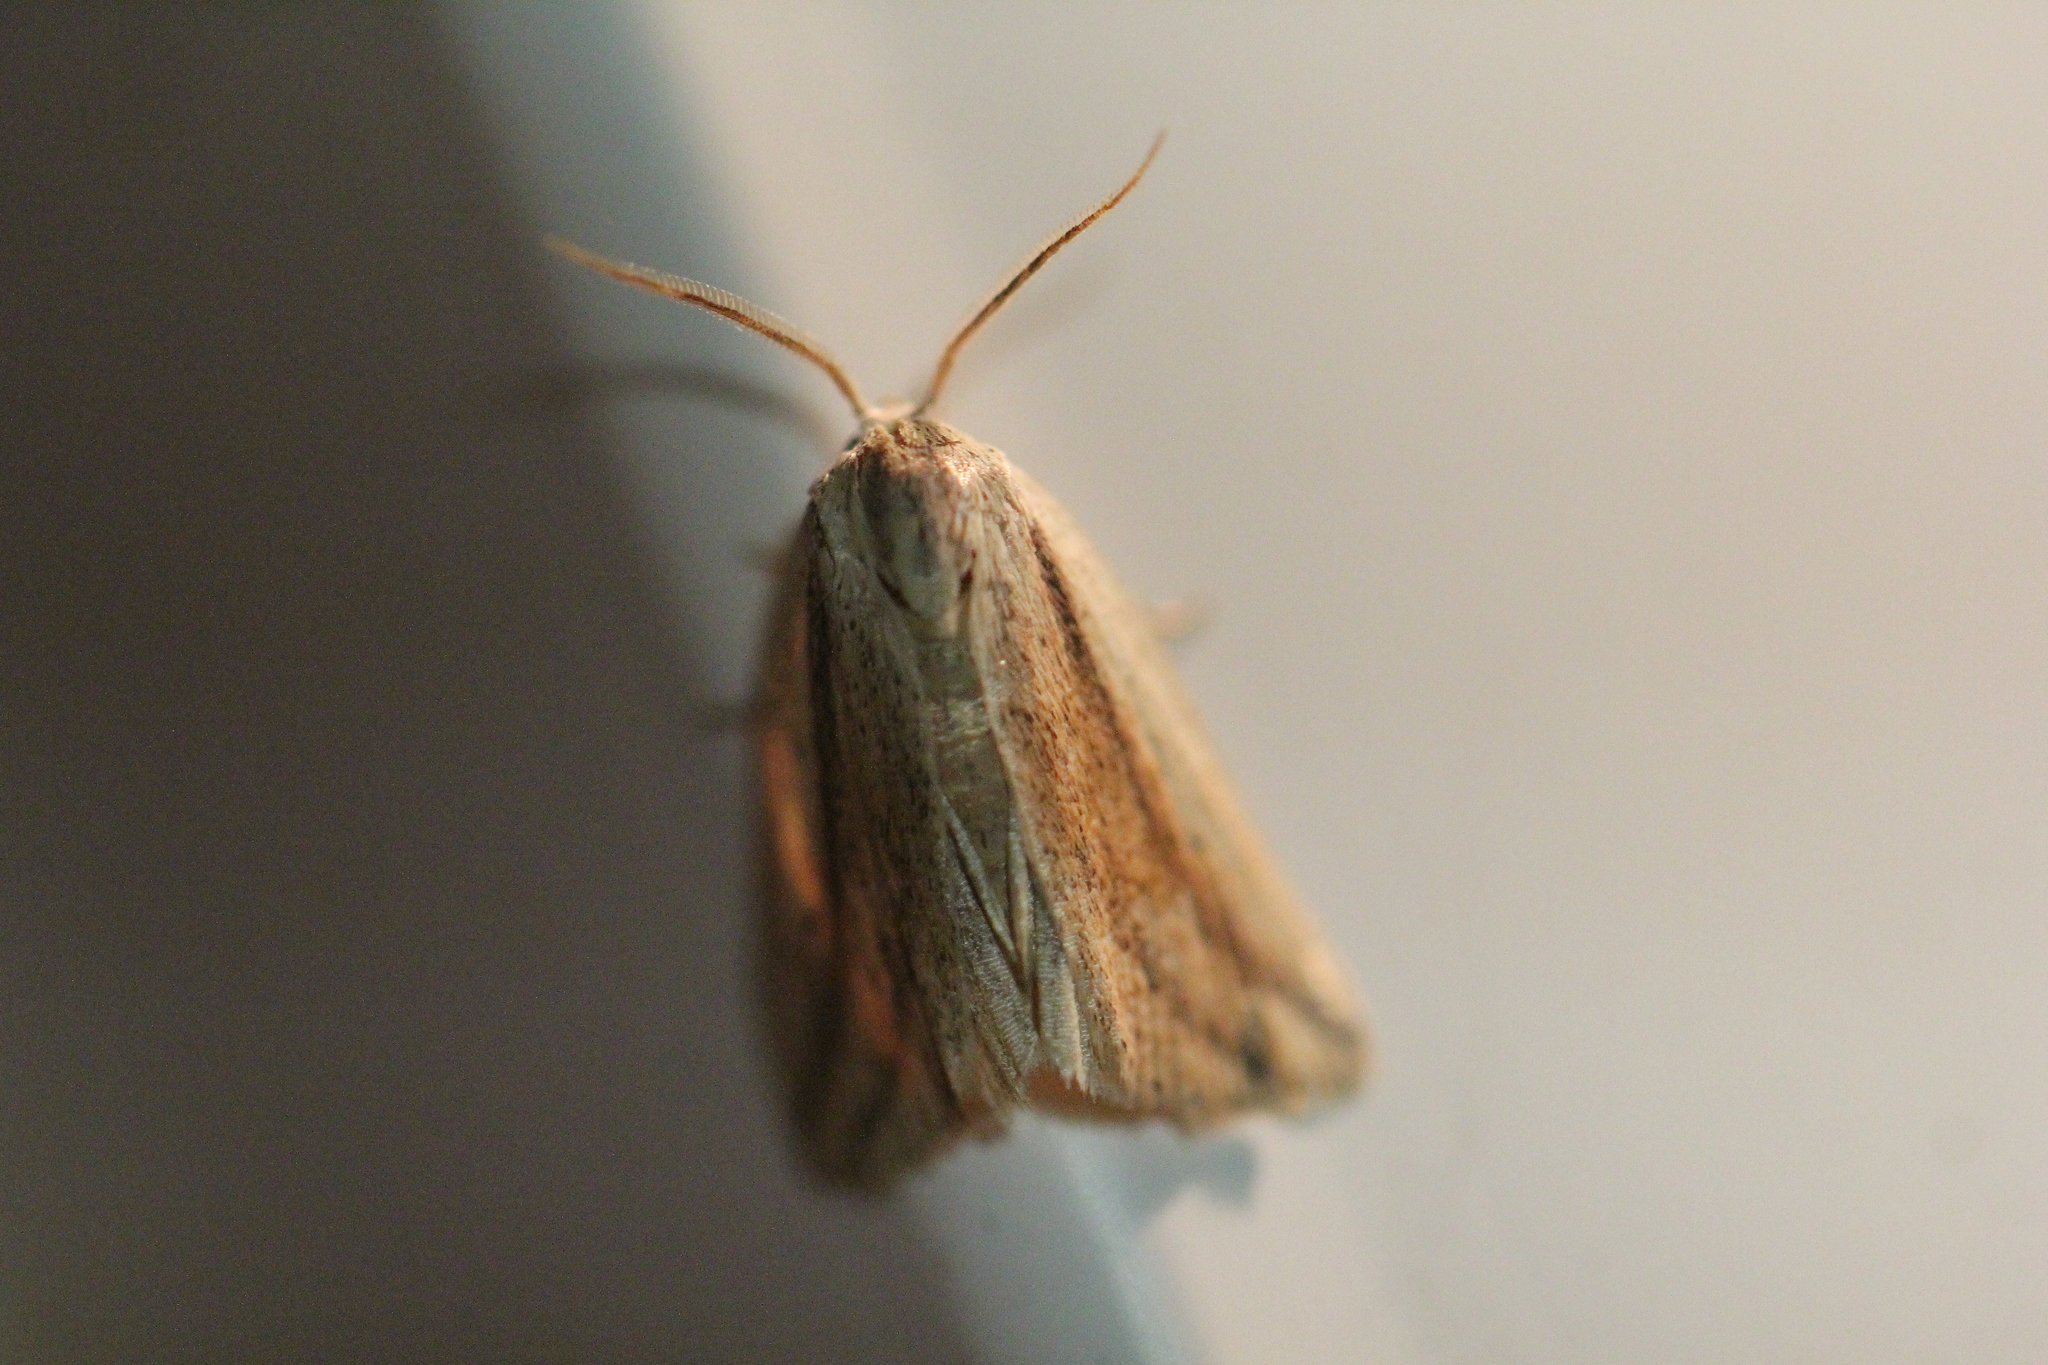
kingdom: Animalia
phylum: Arthropoda
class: Insecta
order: Lepidoptera
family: Noctuidae
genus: Amolita
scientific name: Amolita fessa
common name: Feeble grass moth
